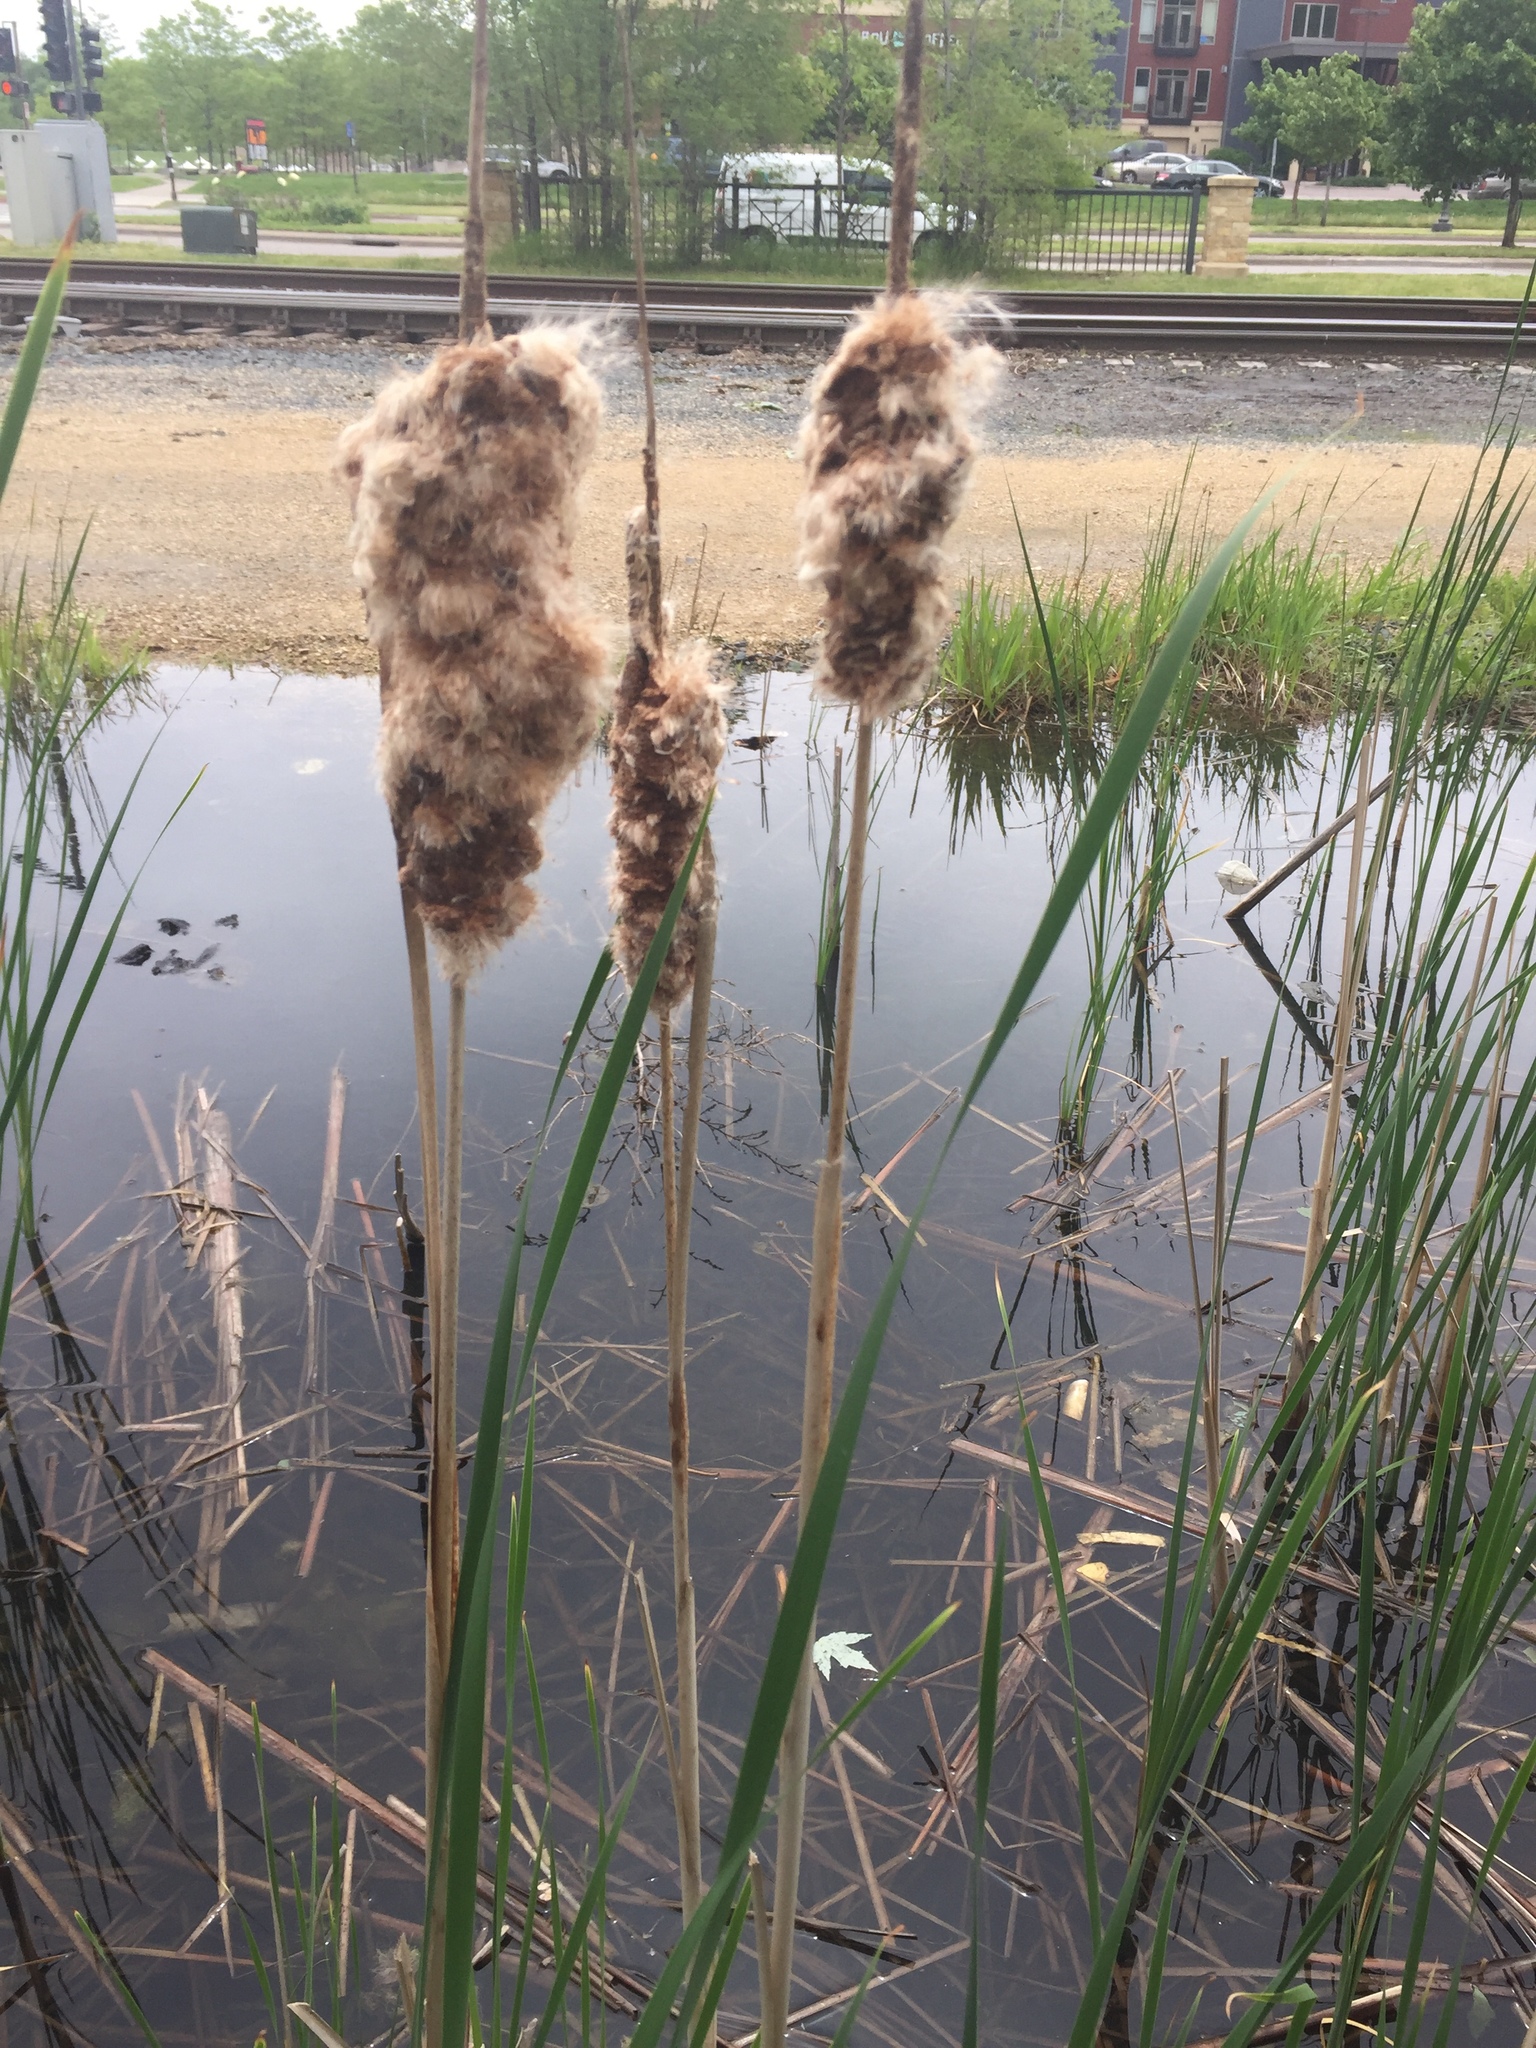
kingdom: Plantae
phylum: Tracheophyta
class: Liliopsida
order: Poales
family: Typhaceae
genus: Typha
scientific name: Typha latifolia
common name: Broadleaf cattail
